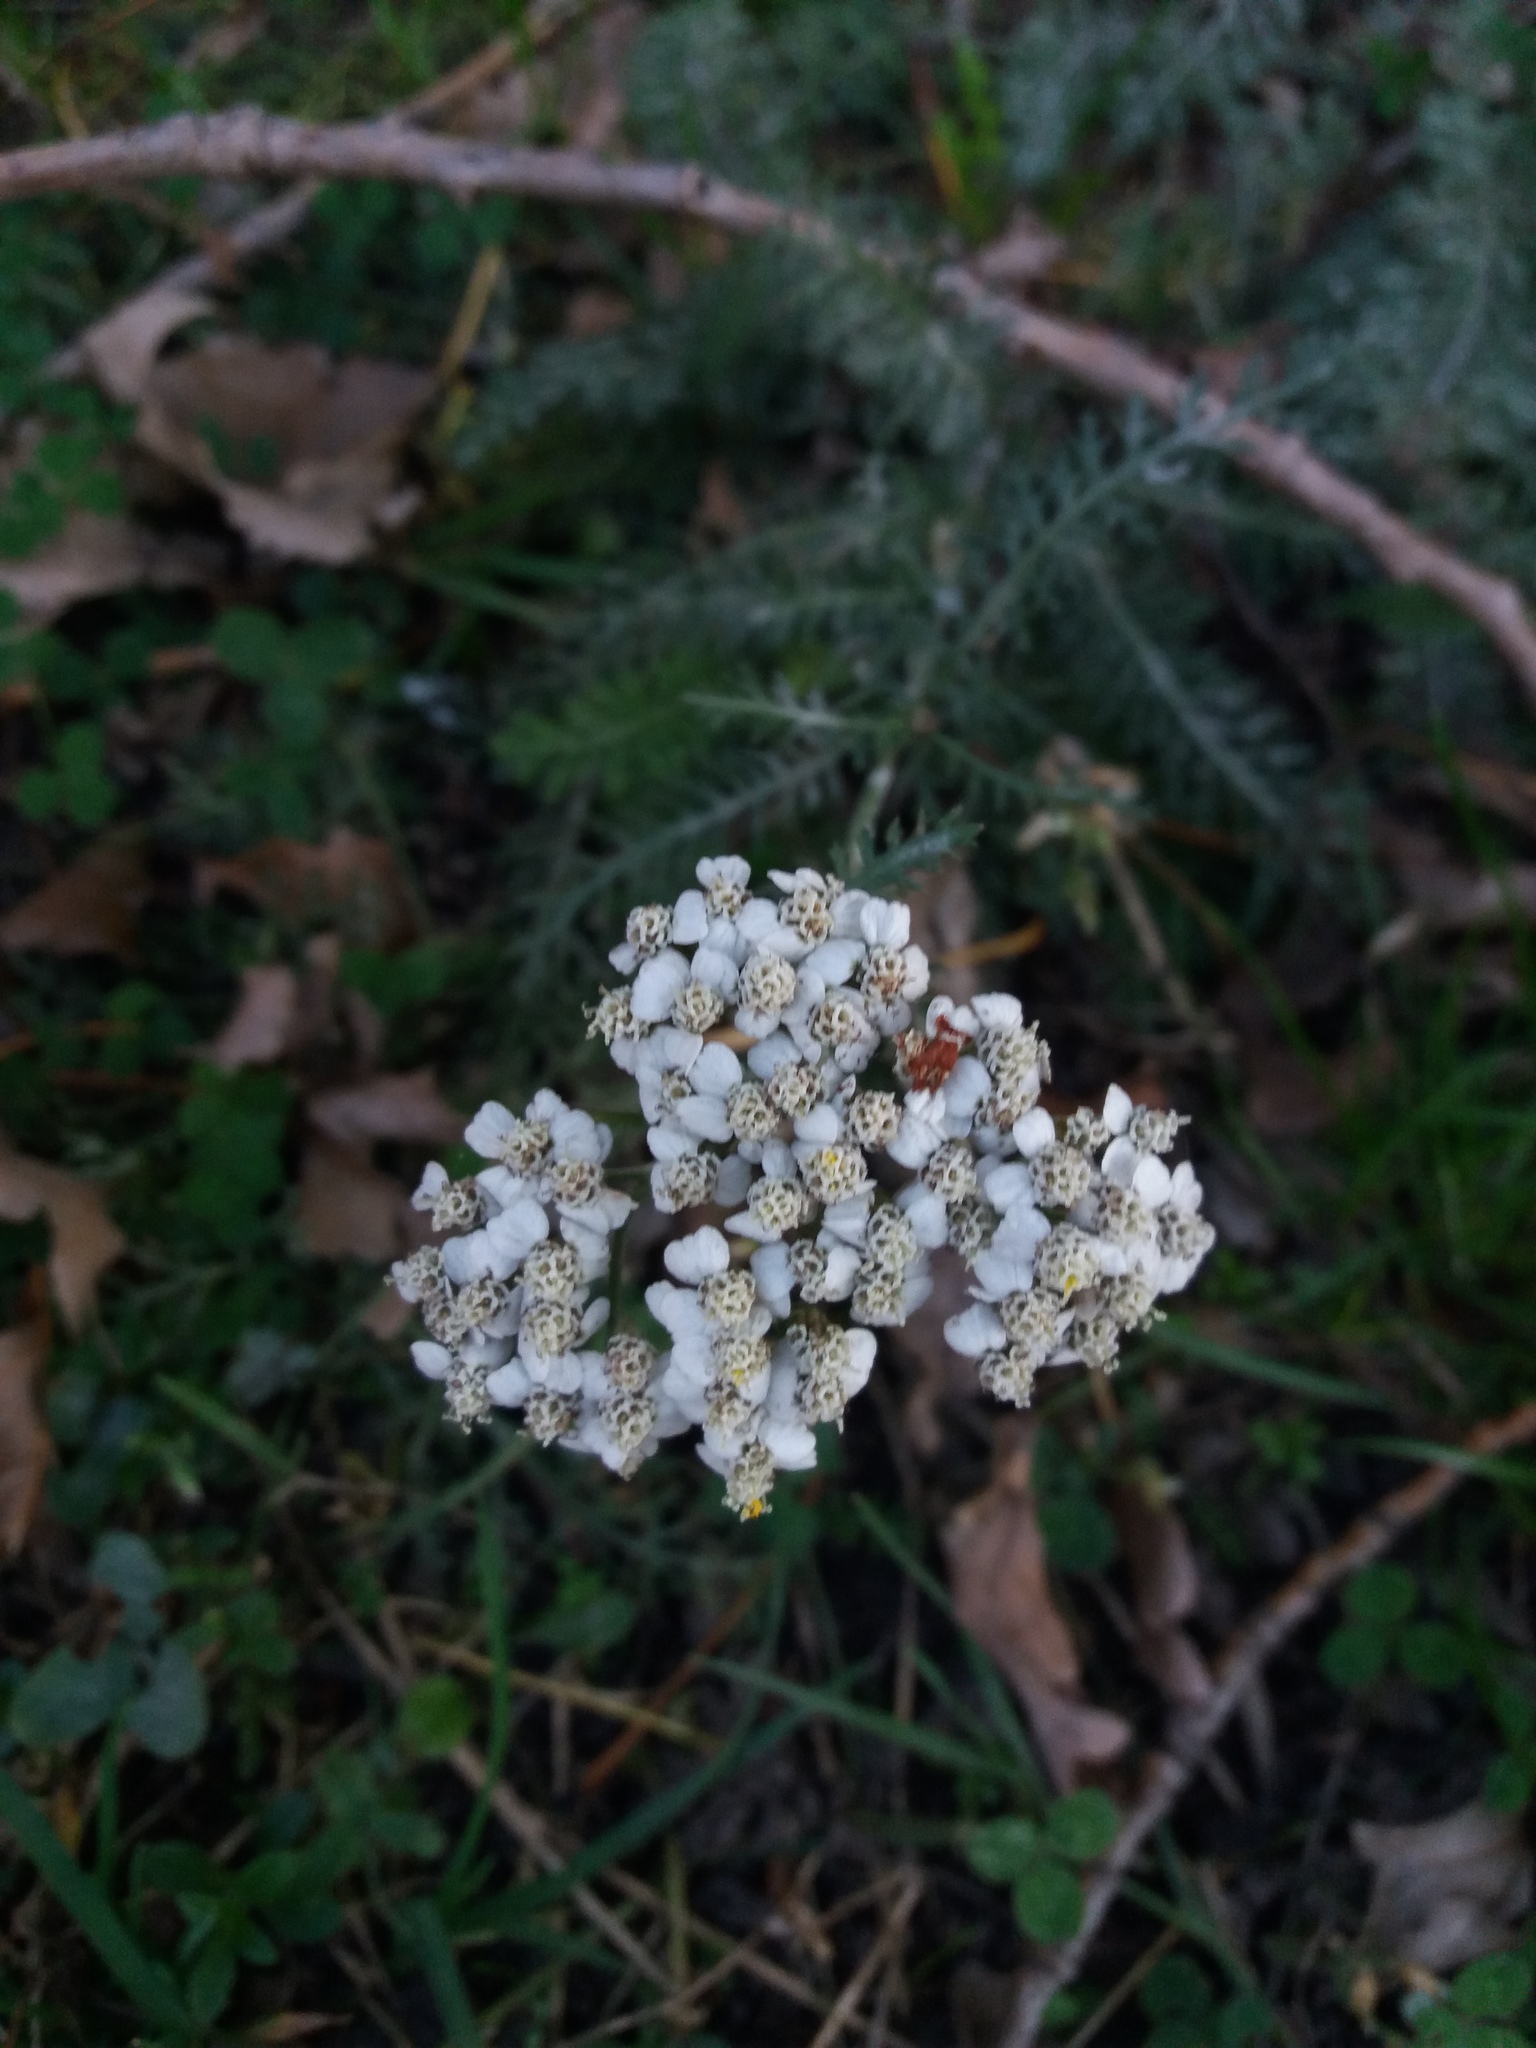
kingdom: Plantae
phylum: Tracheophyta
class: Magnoliopsida
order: Asterales
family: Asteraceae
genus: Achillea
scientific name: Achillea millefolium
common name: Yarrow
